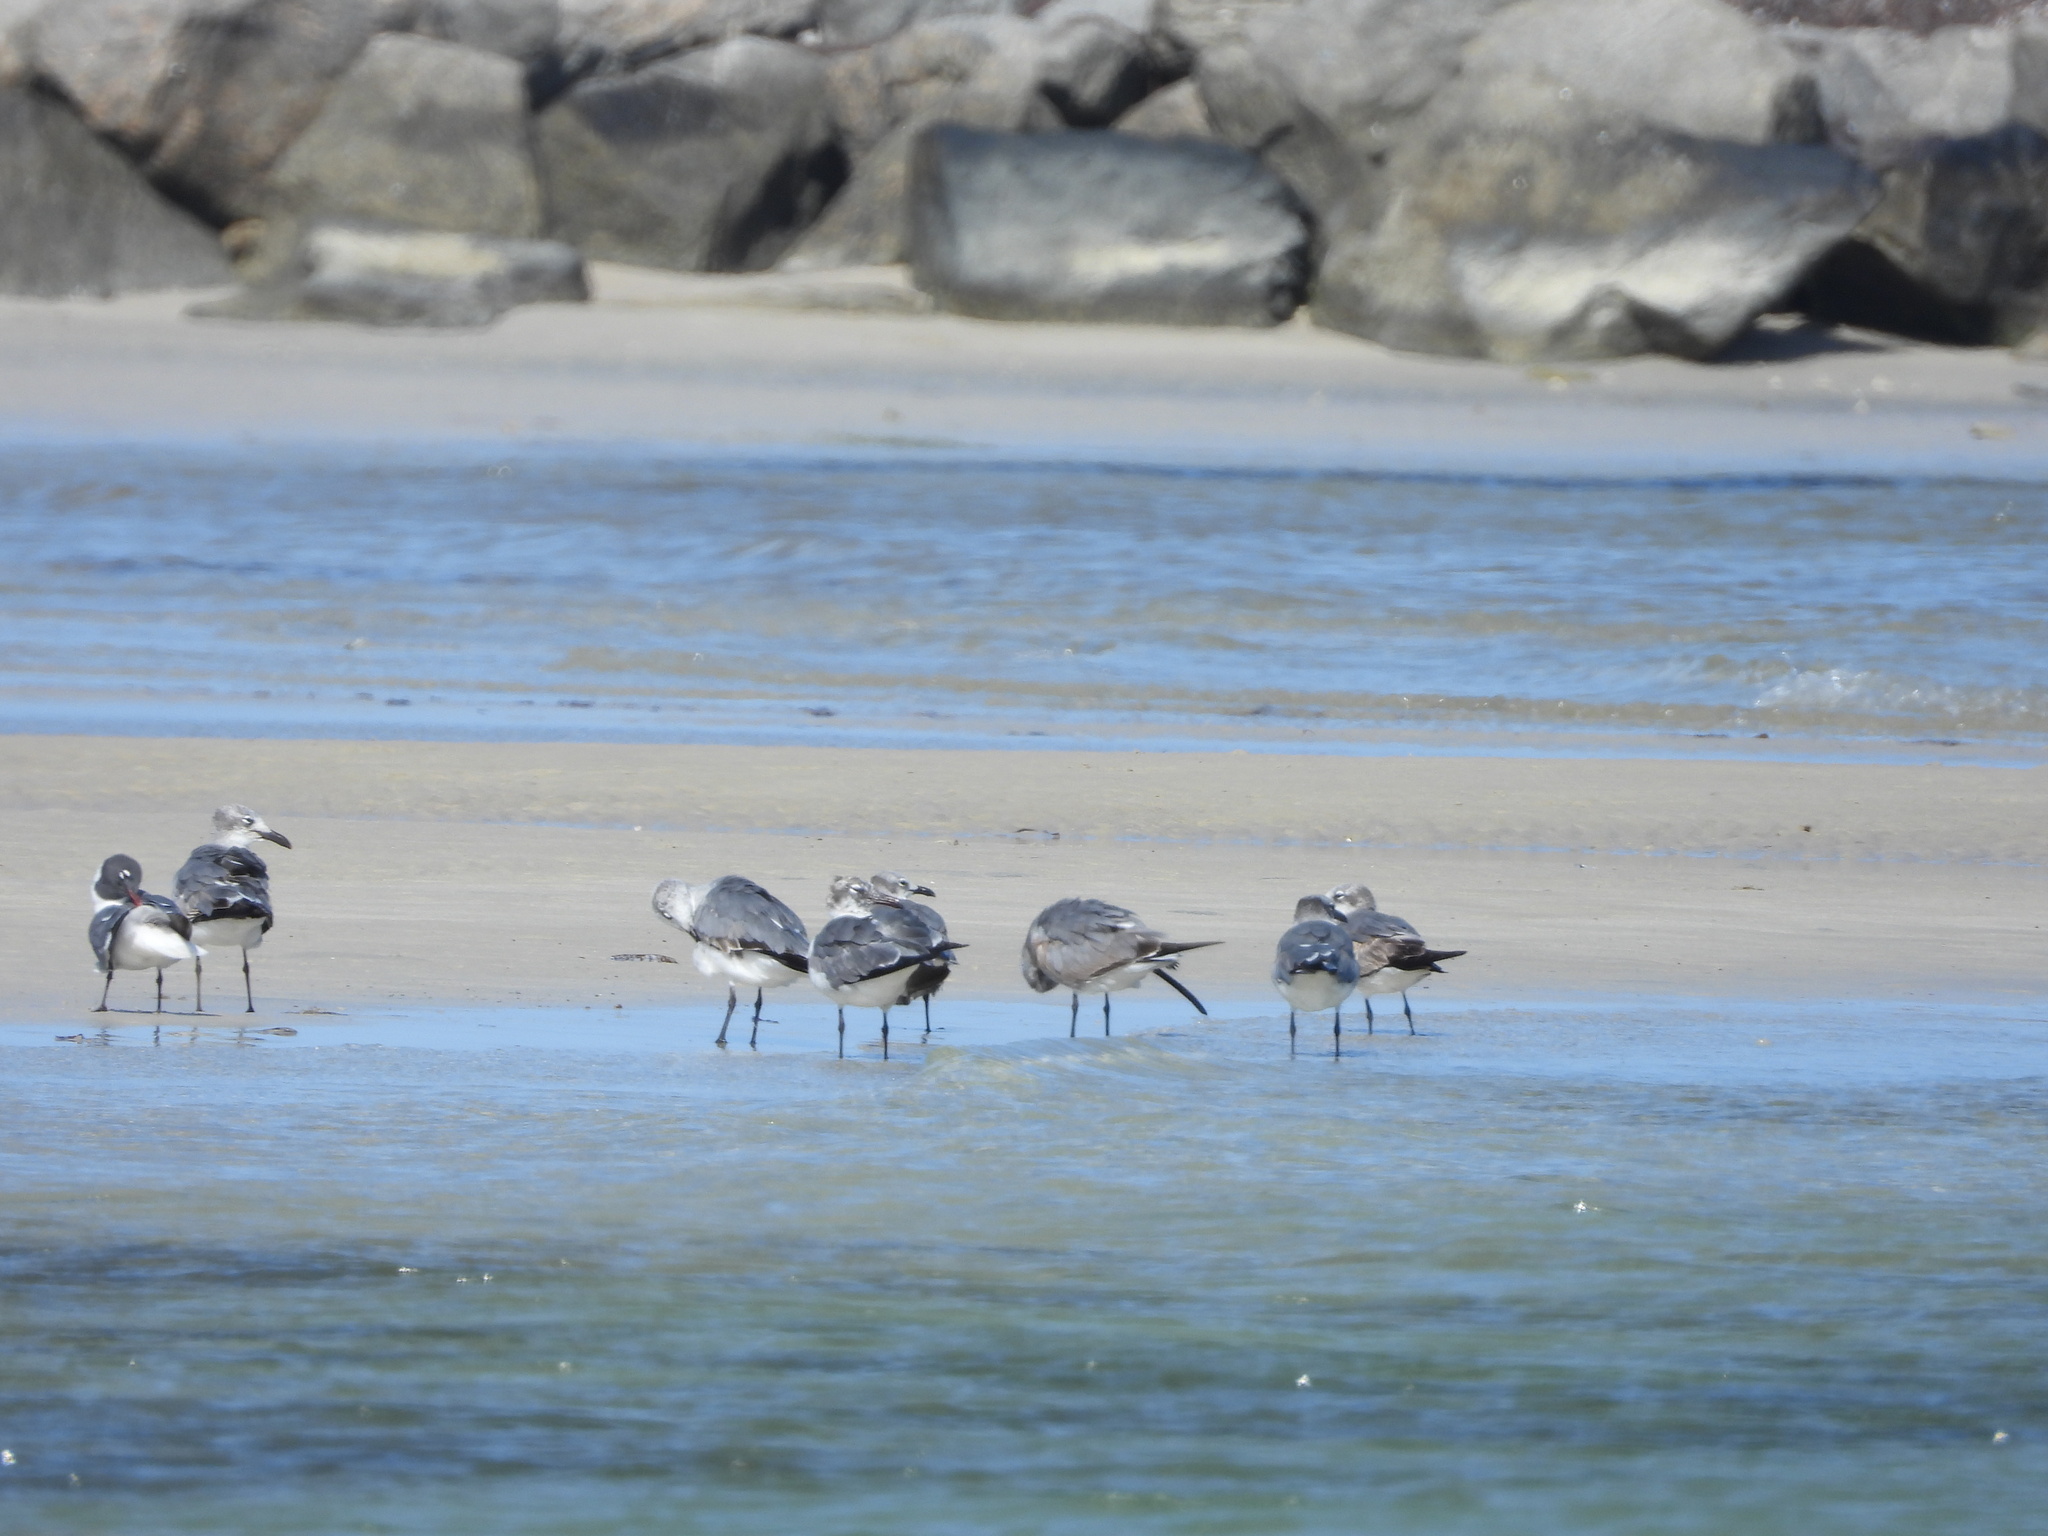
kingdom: Animalia
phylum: Chordata
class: Aves
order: Charadriiformes
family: Laridae
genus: Leucophaeus
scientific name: Leucophaeus atricilla
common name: Laughing gull
